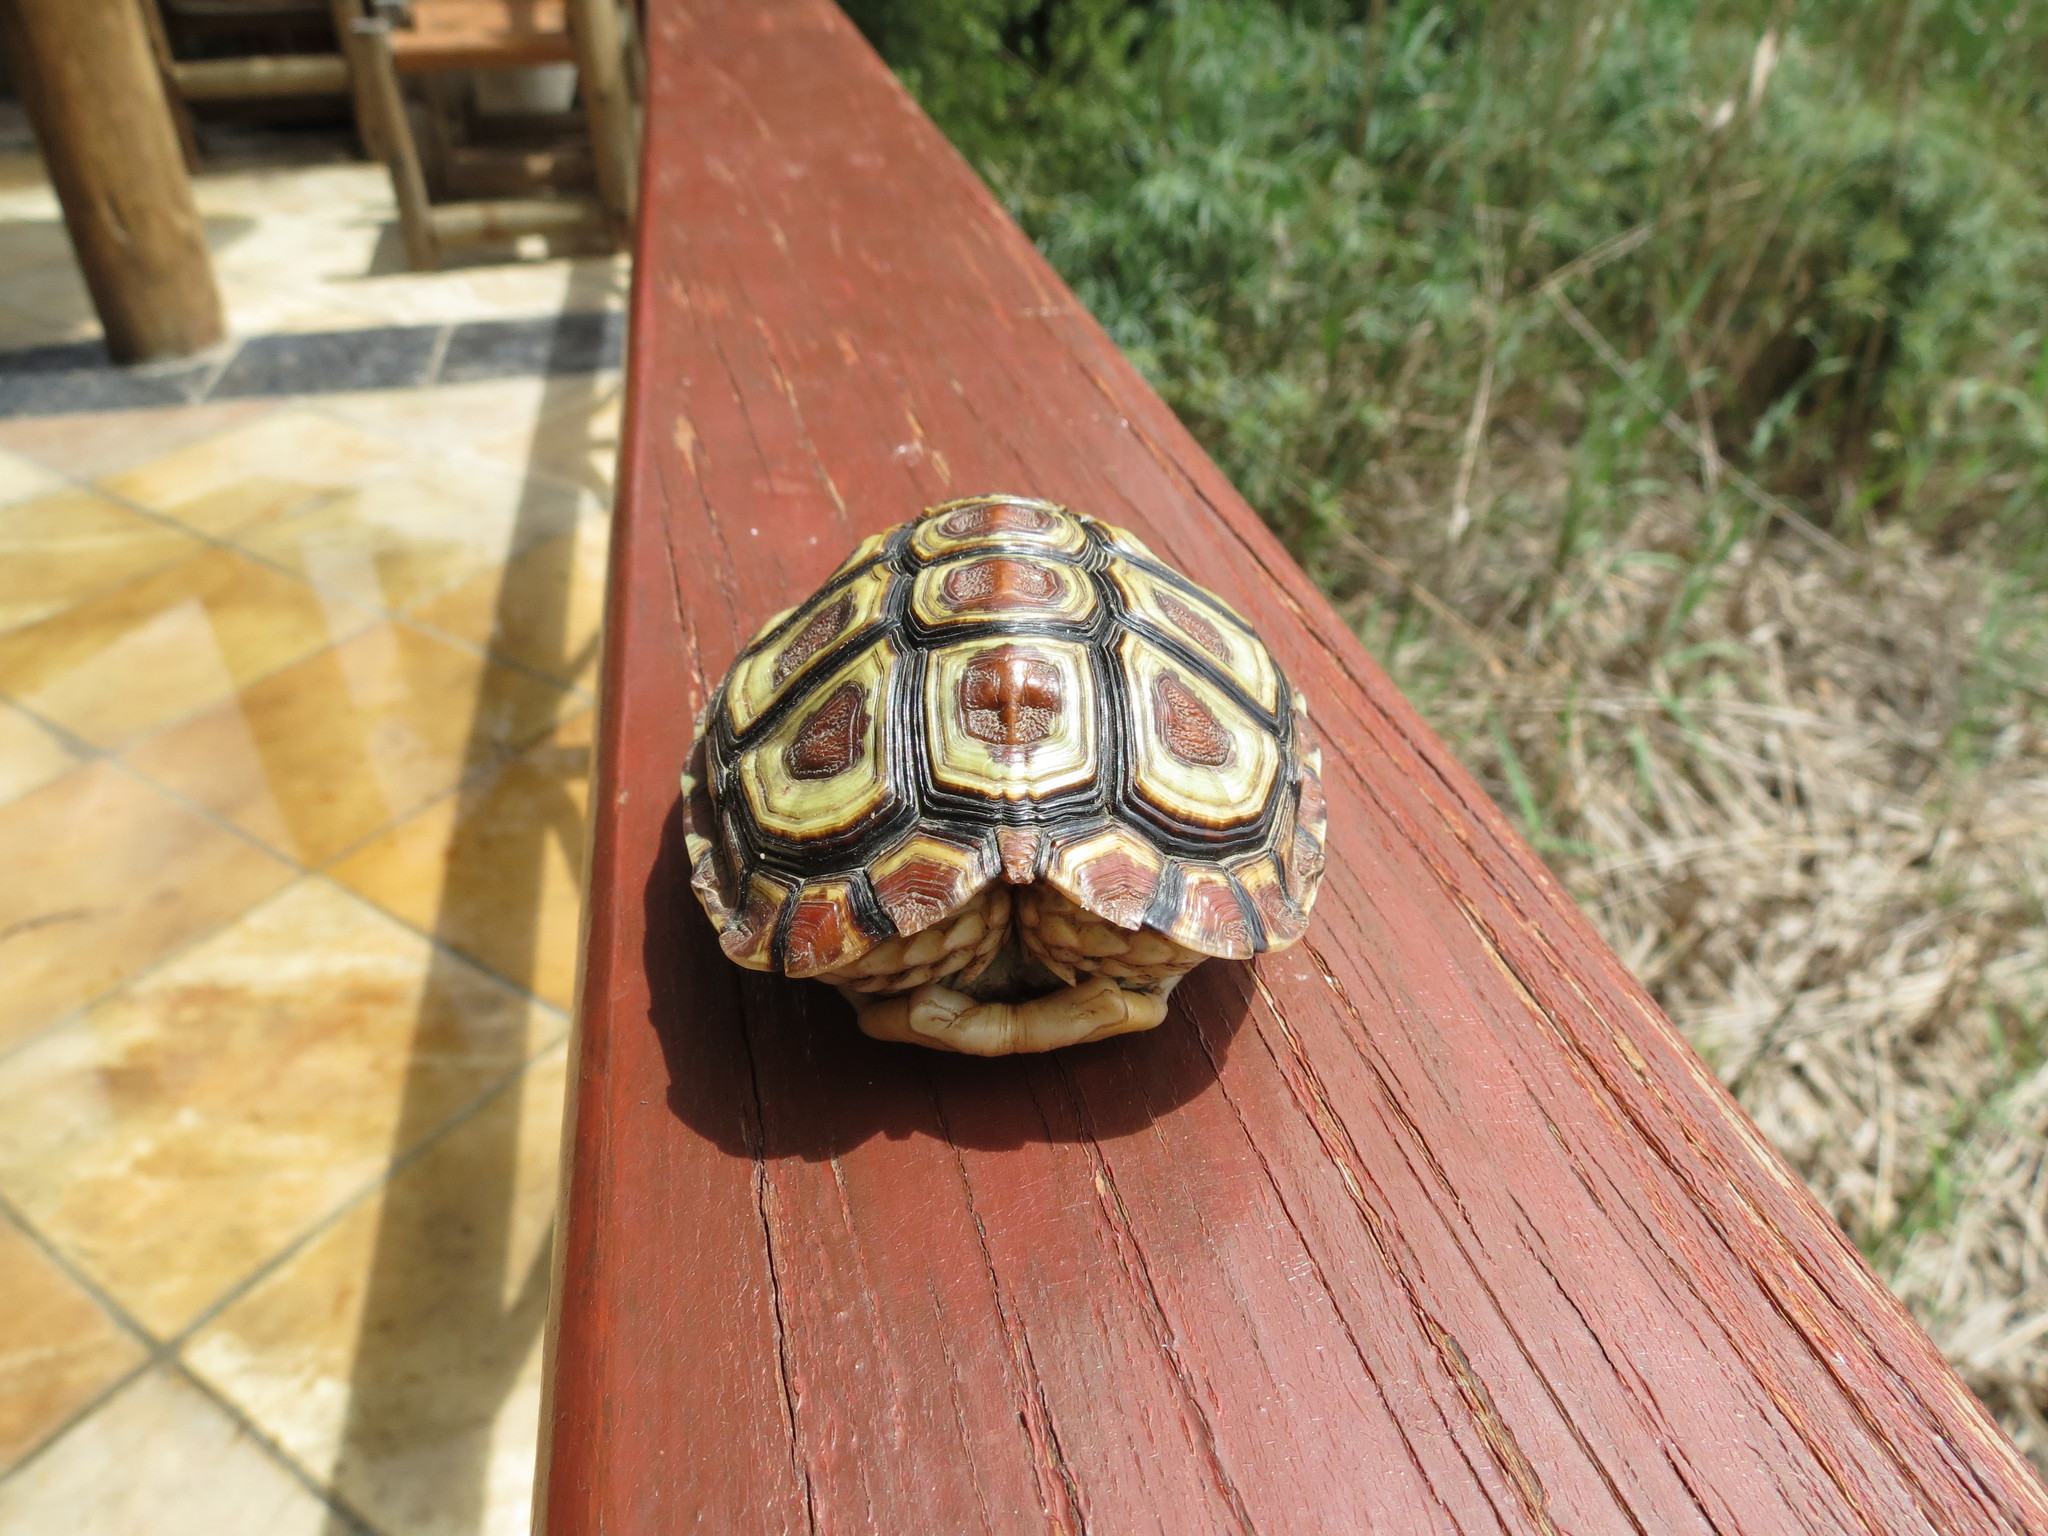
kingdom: Animalia
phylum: Chordata
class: Testudines
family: Testudinidae
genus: Homopus
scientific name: Homopus areolatus
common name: Parrot-beaked tortoise
